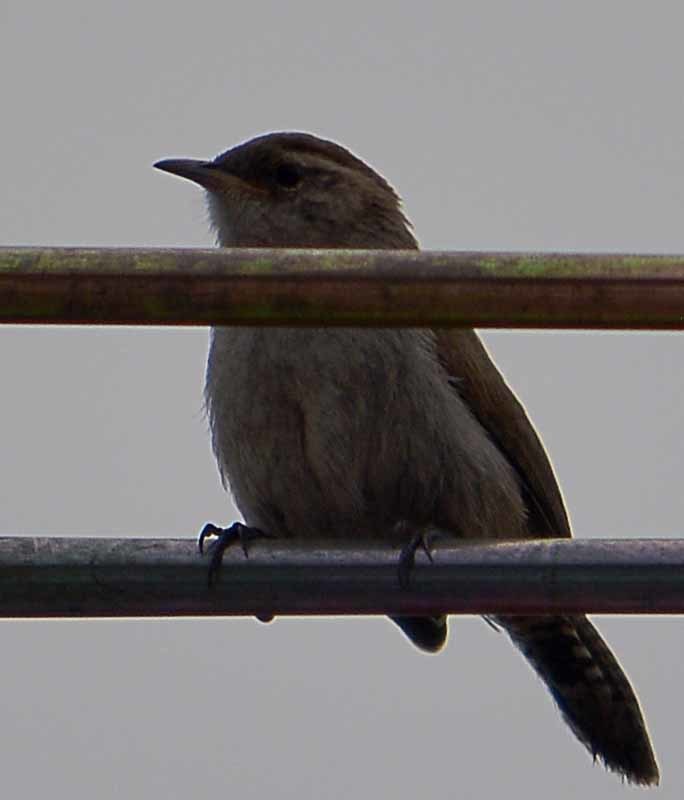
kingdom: Animalia
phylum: Chordata
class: Aves
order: Passeriformes
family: Troglodytidae
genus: Thryomanes
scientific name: Thryomanes bewickii
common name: Bewick's wren
